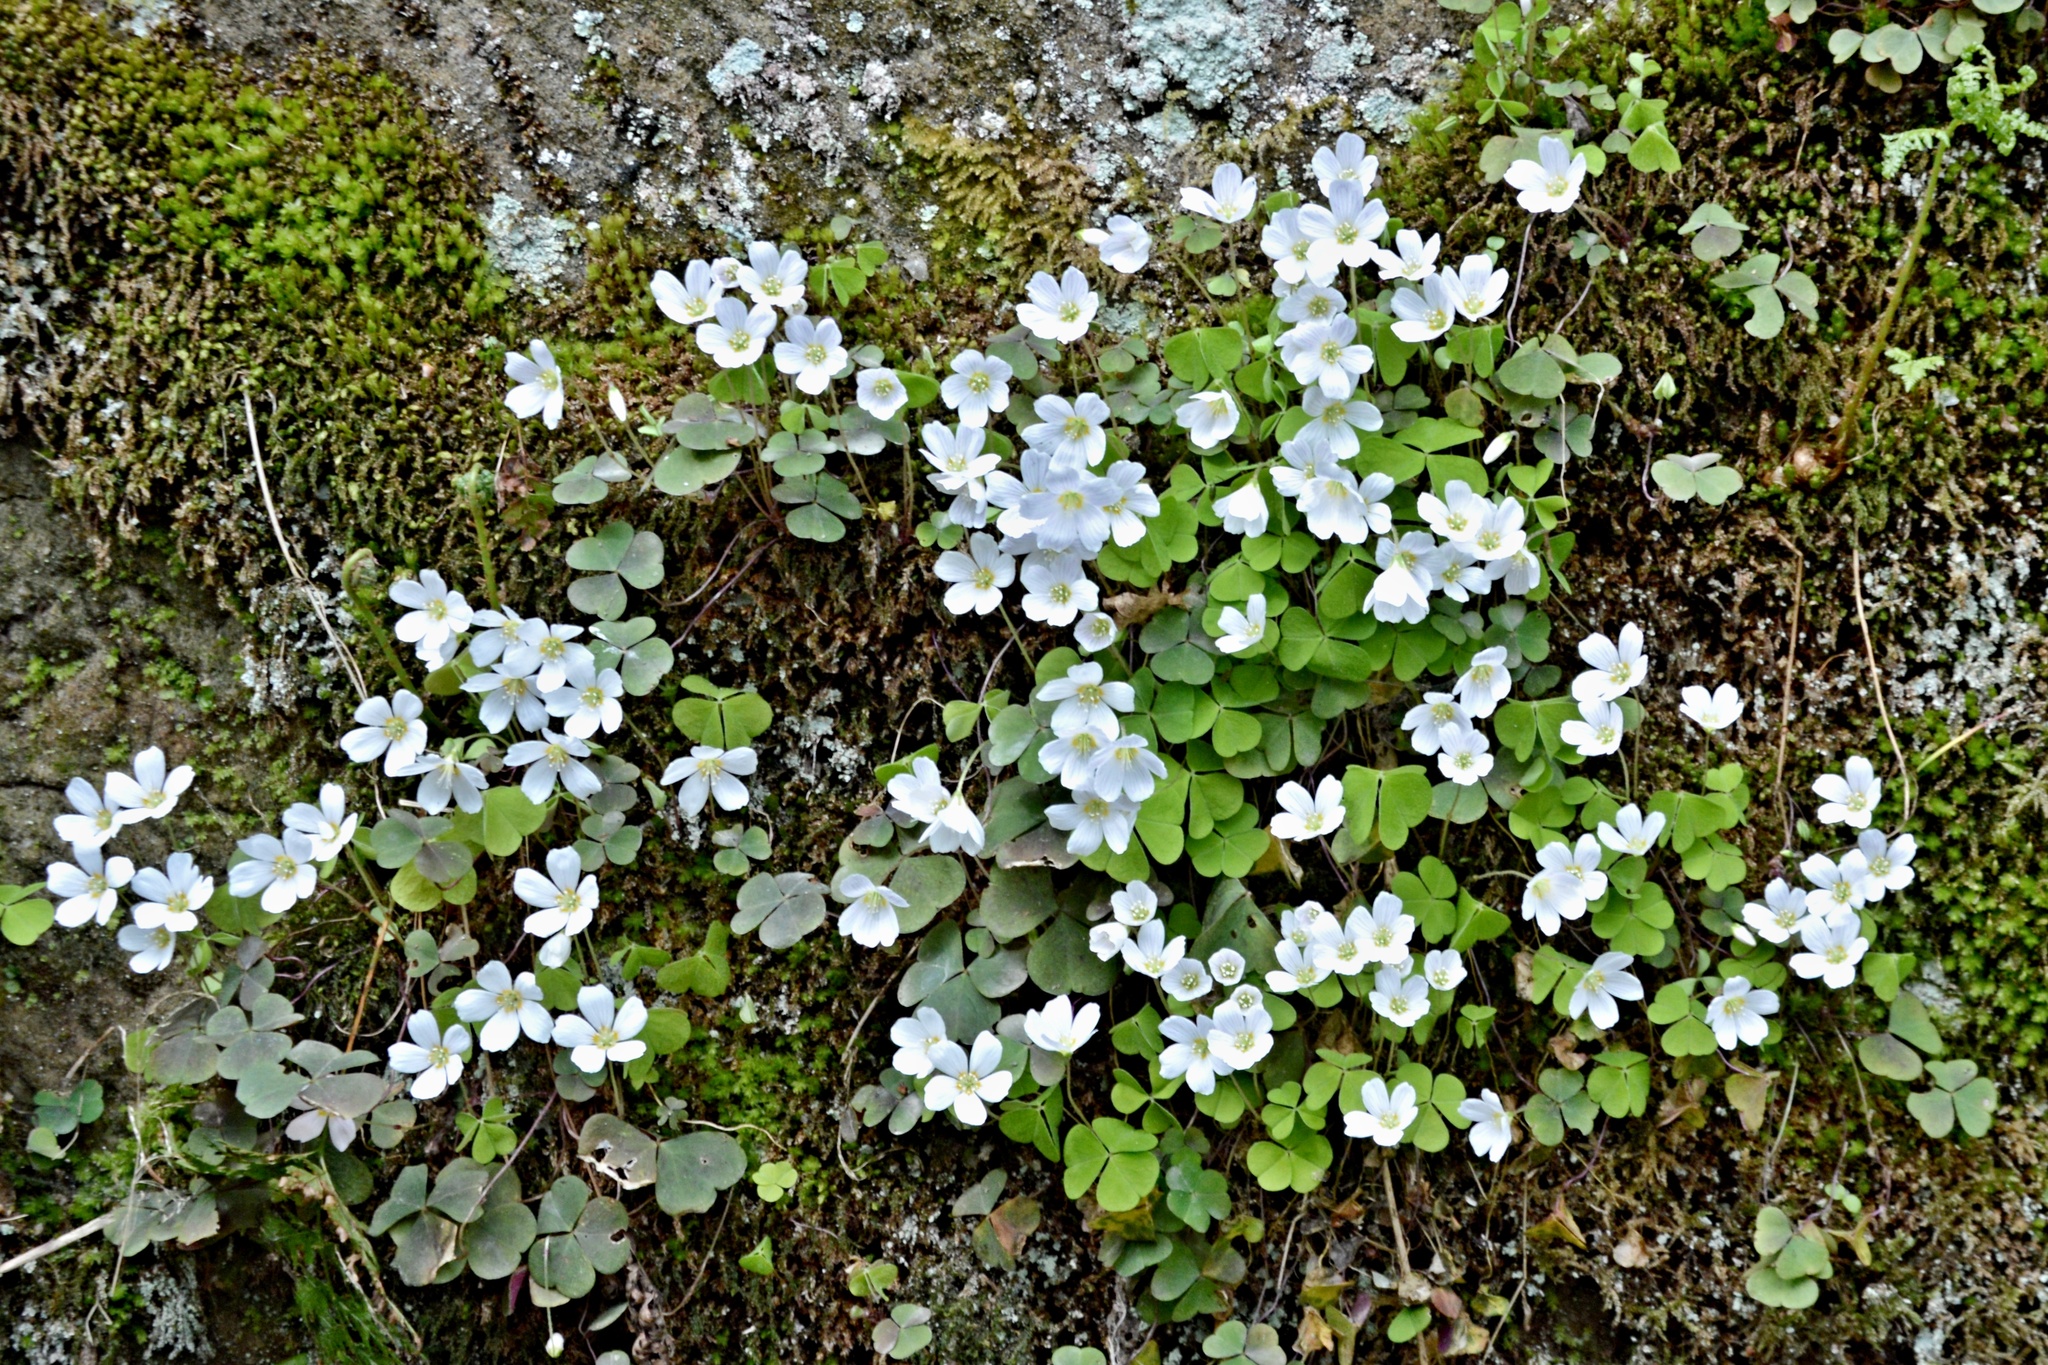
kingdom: Plantae
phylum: Tracheophyta
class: Magnoliopsida
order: Oxalidales
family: Oxalidaceae
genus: Oxalis
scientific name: Oxalis acetosella
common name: Wood-sorrel
